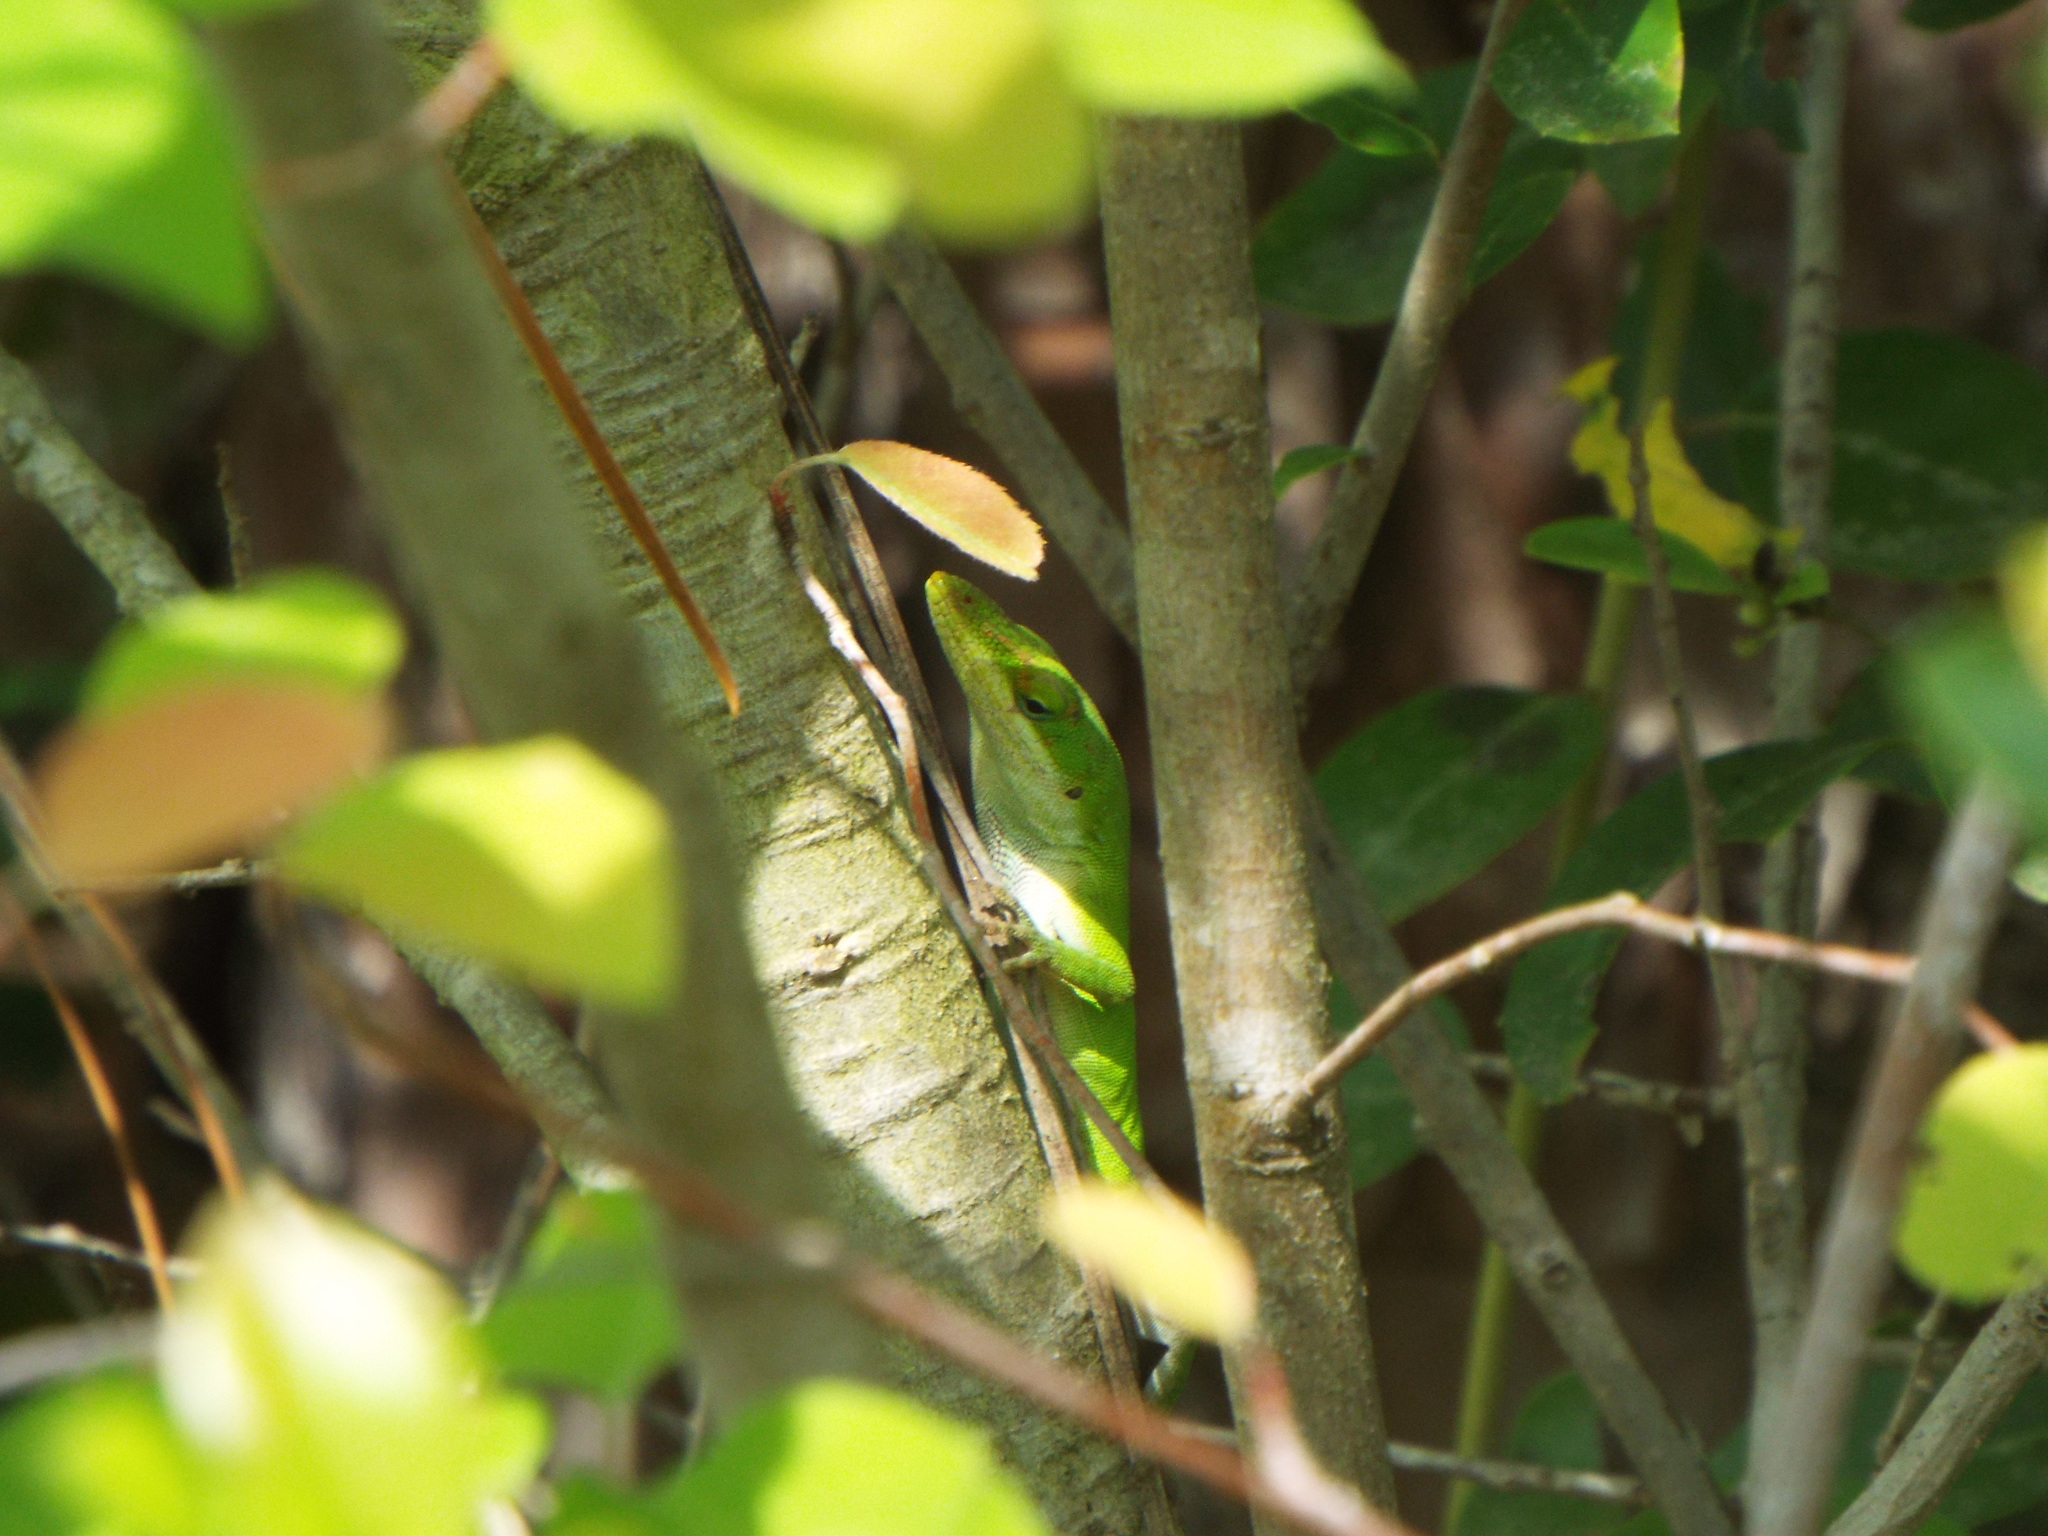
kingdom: Animalia
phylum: Chordata
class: Squamata
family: Dactyloidae
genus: Anolis
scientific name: Anolis carolinensis
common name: Green anole
